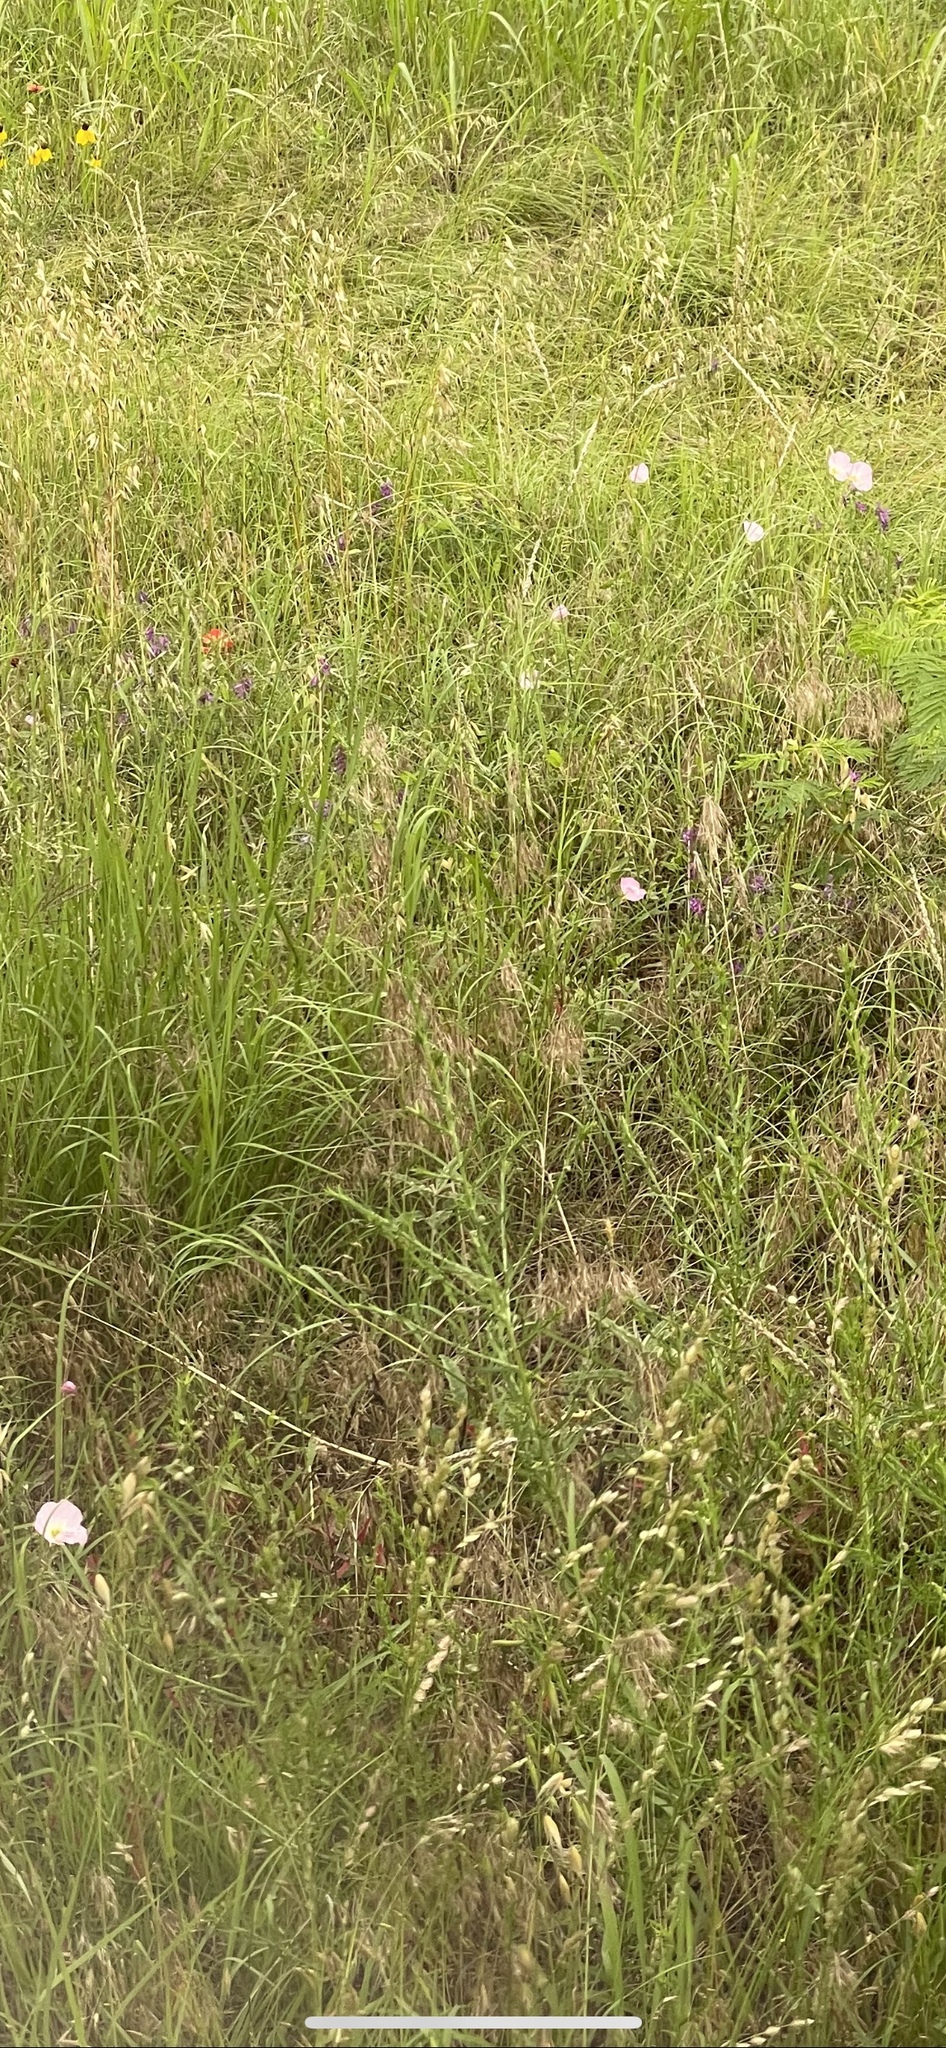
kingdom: Plantae
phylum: Tracheophyta
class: Magnoliopsida
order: Myrtales
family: Onagraceae
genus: Oenothera
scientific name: Oenothera speciosa
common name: White evening-primrose
